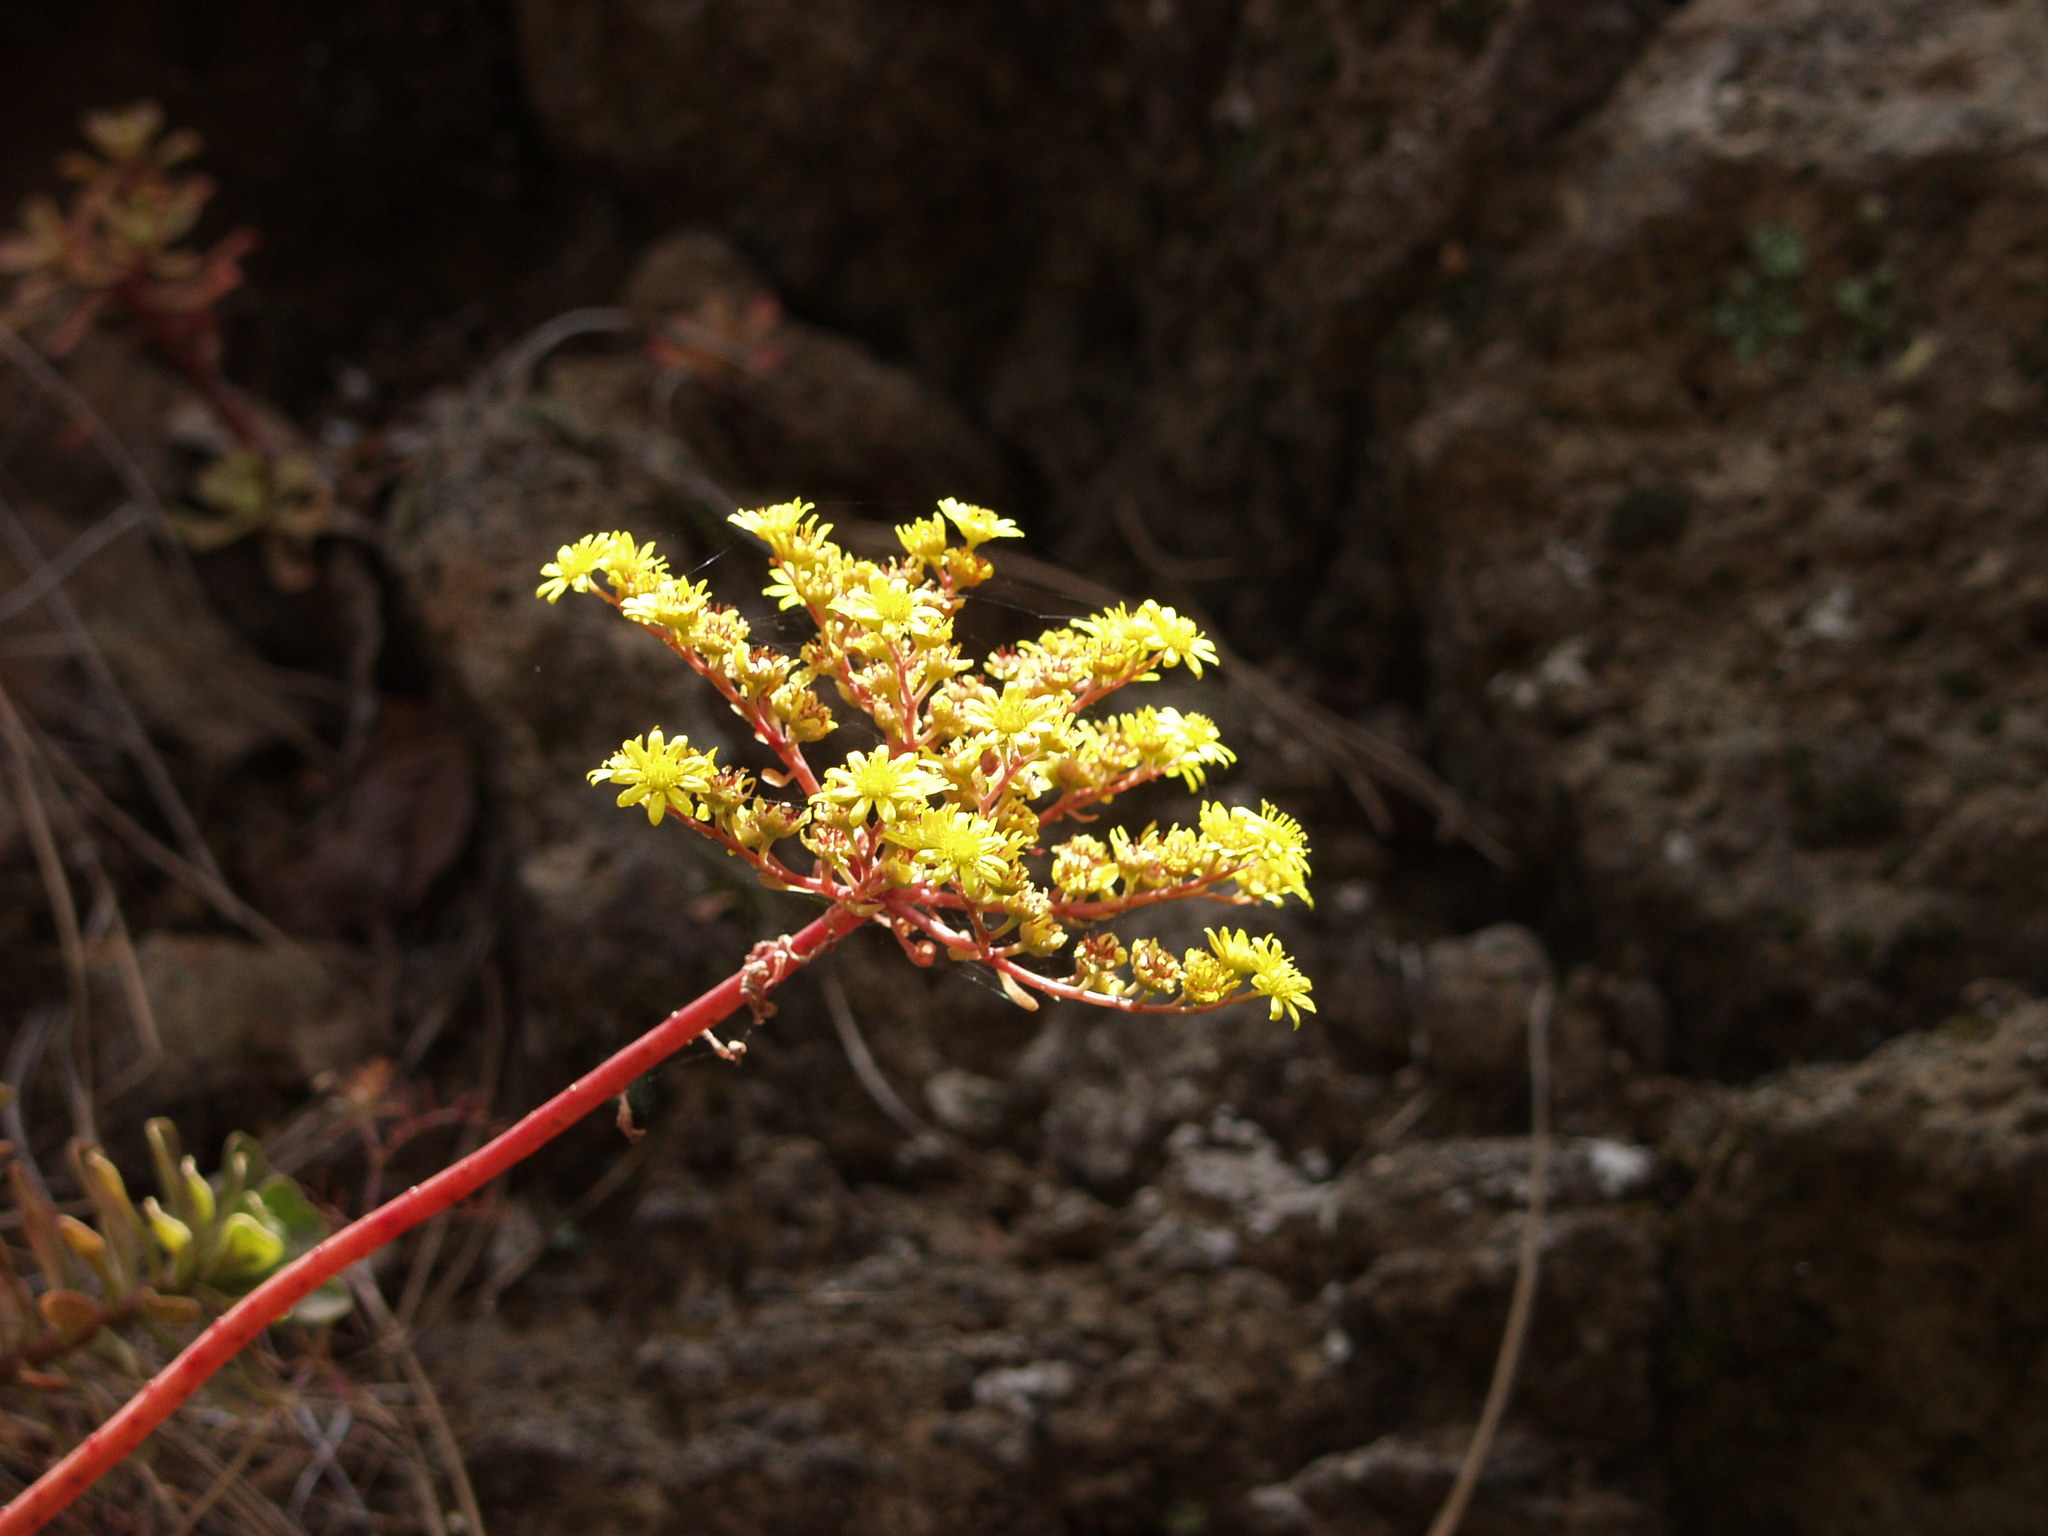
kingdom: Plantae
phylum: Tracheophyta
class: Magnoliopsida
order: Saxifragales
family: Crassulaceae
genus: Aeonium
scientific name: Aeonium spathulatum
